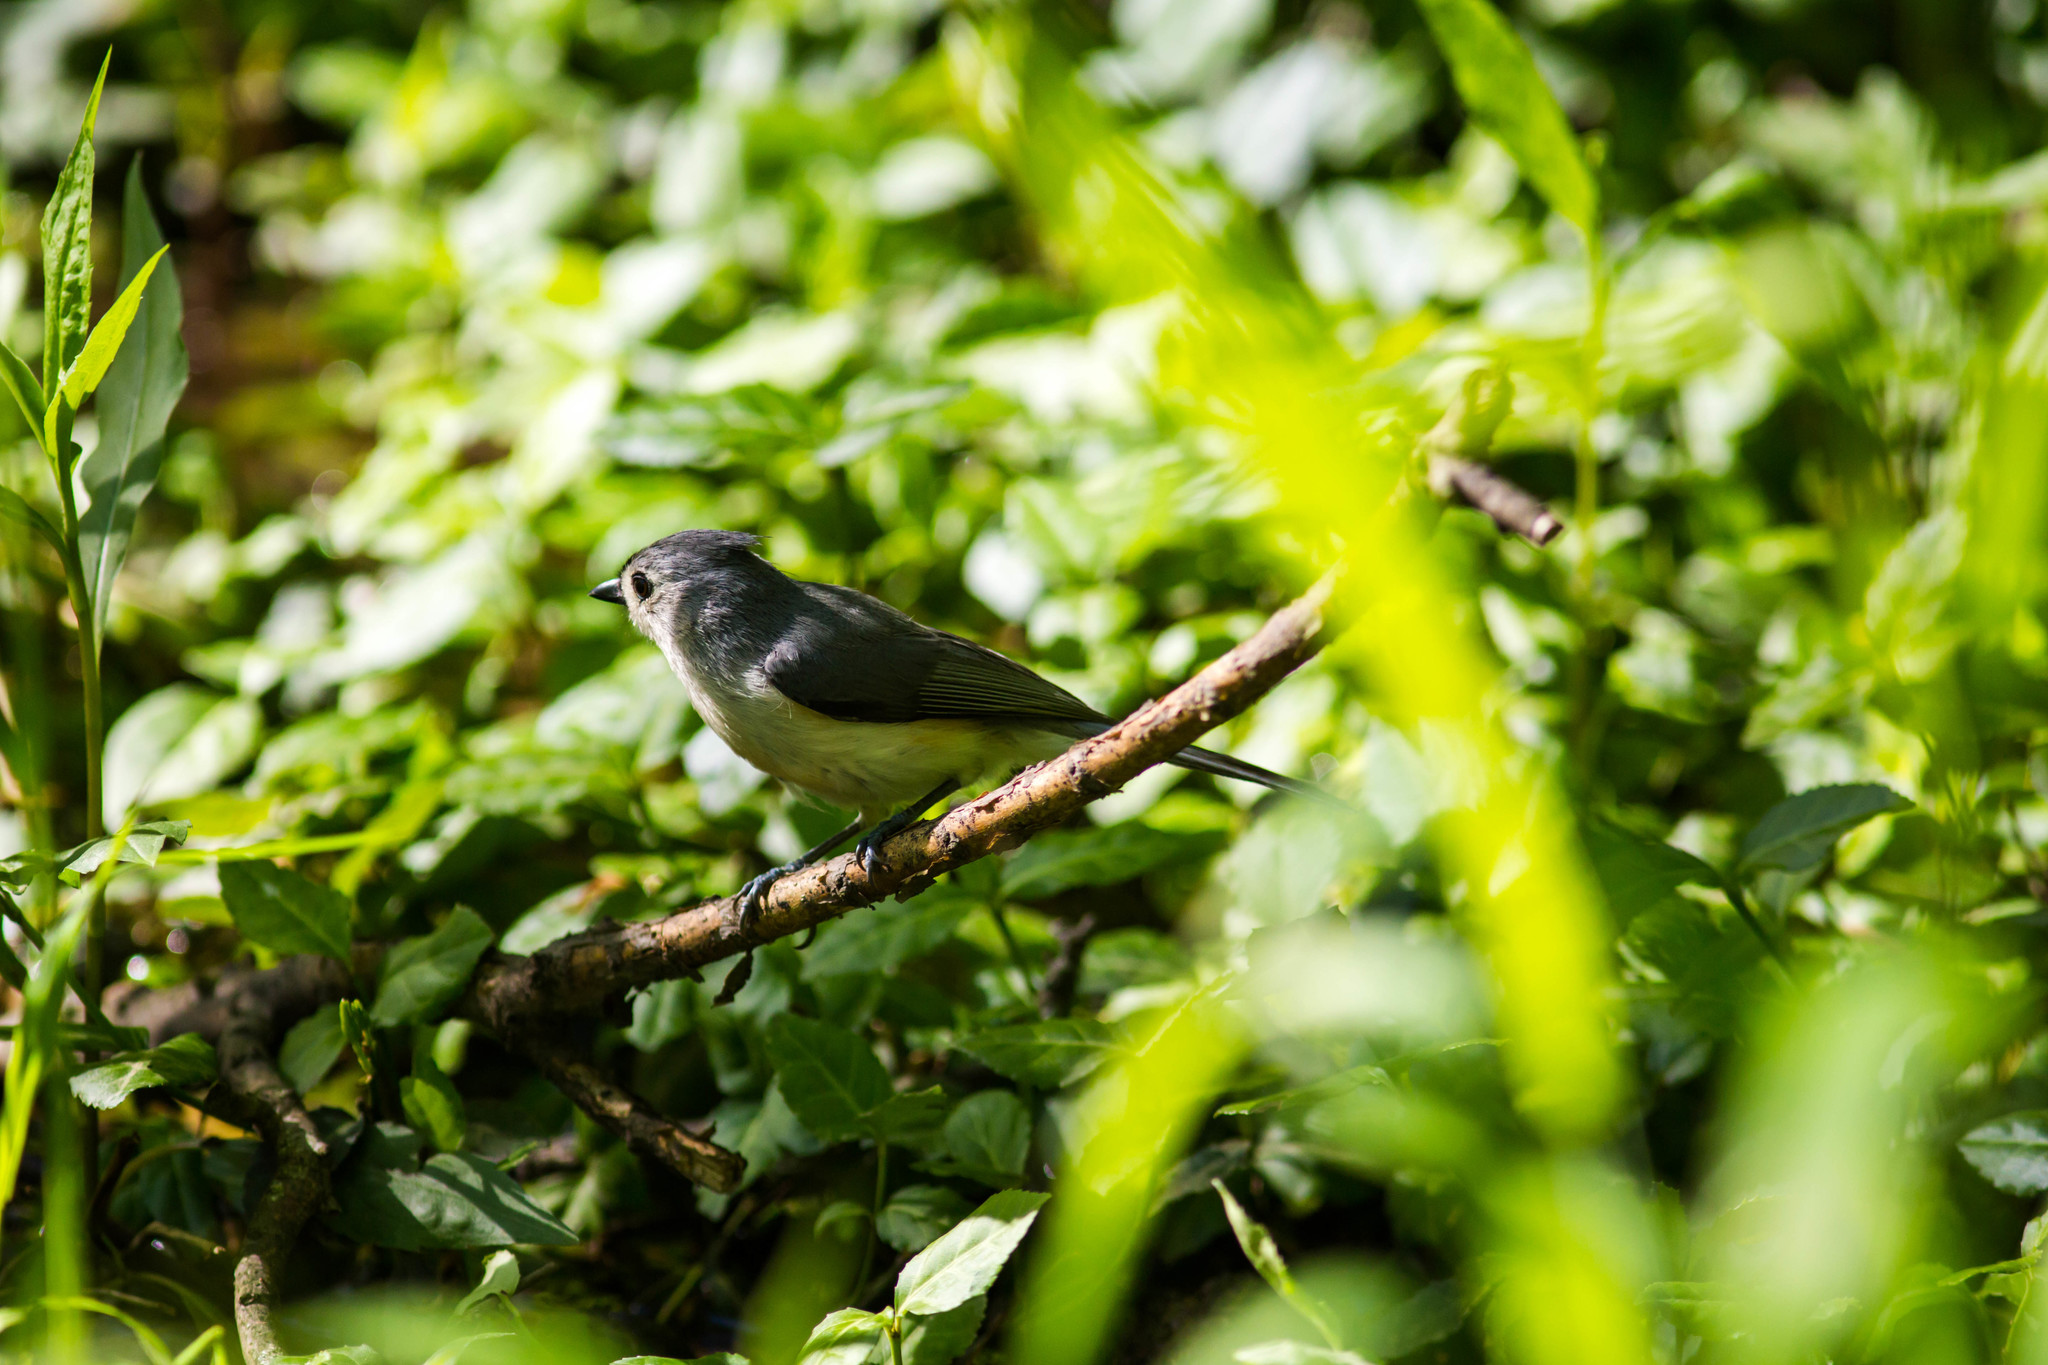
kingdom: Animalia
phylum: Chordata
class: Aves
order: Passeriformes
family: Paridae
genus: Baeolophus
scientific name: Baeolophus bicolor
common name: Tufted titmouse
